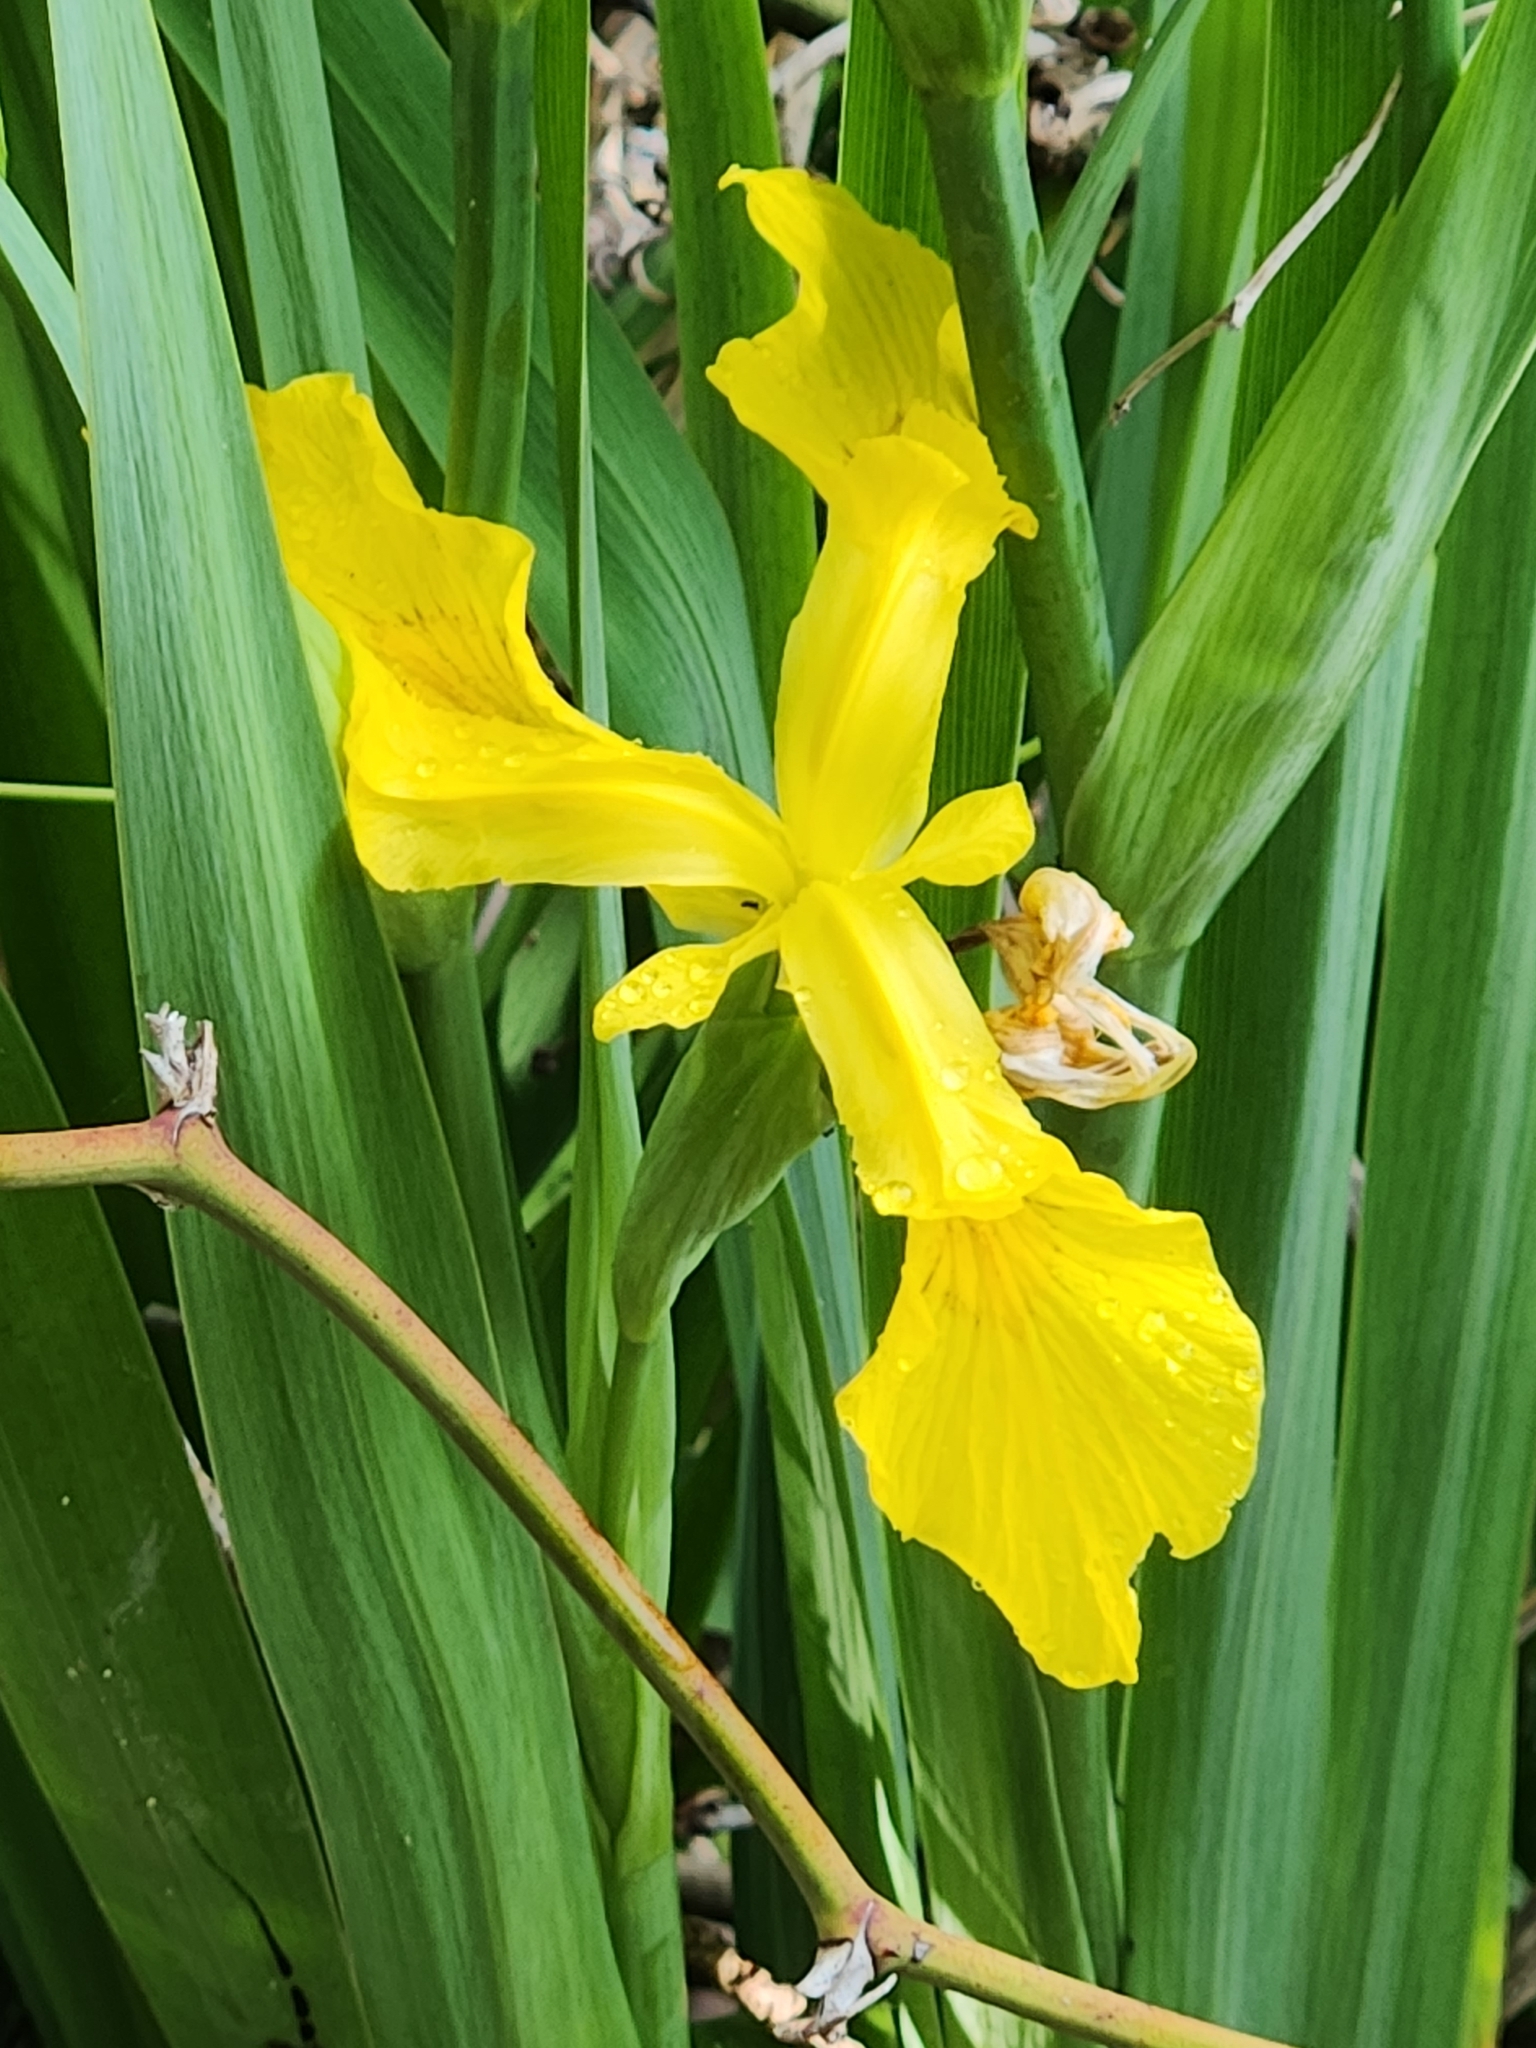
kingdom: Plantae
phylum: Tracheophyta
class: Liliopsida
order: Asparagales
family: Iridaceae
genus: Iris
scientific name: Iris pseudacorus
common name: Yellow flag
